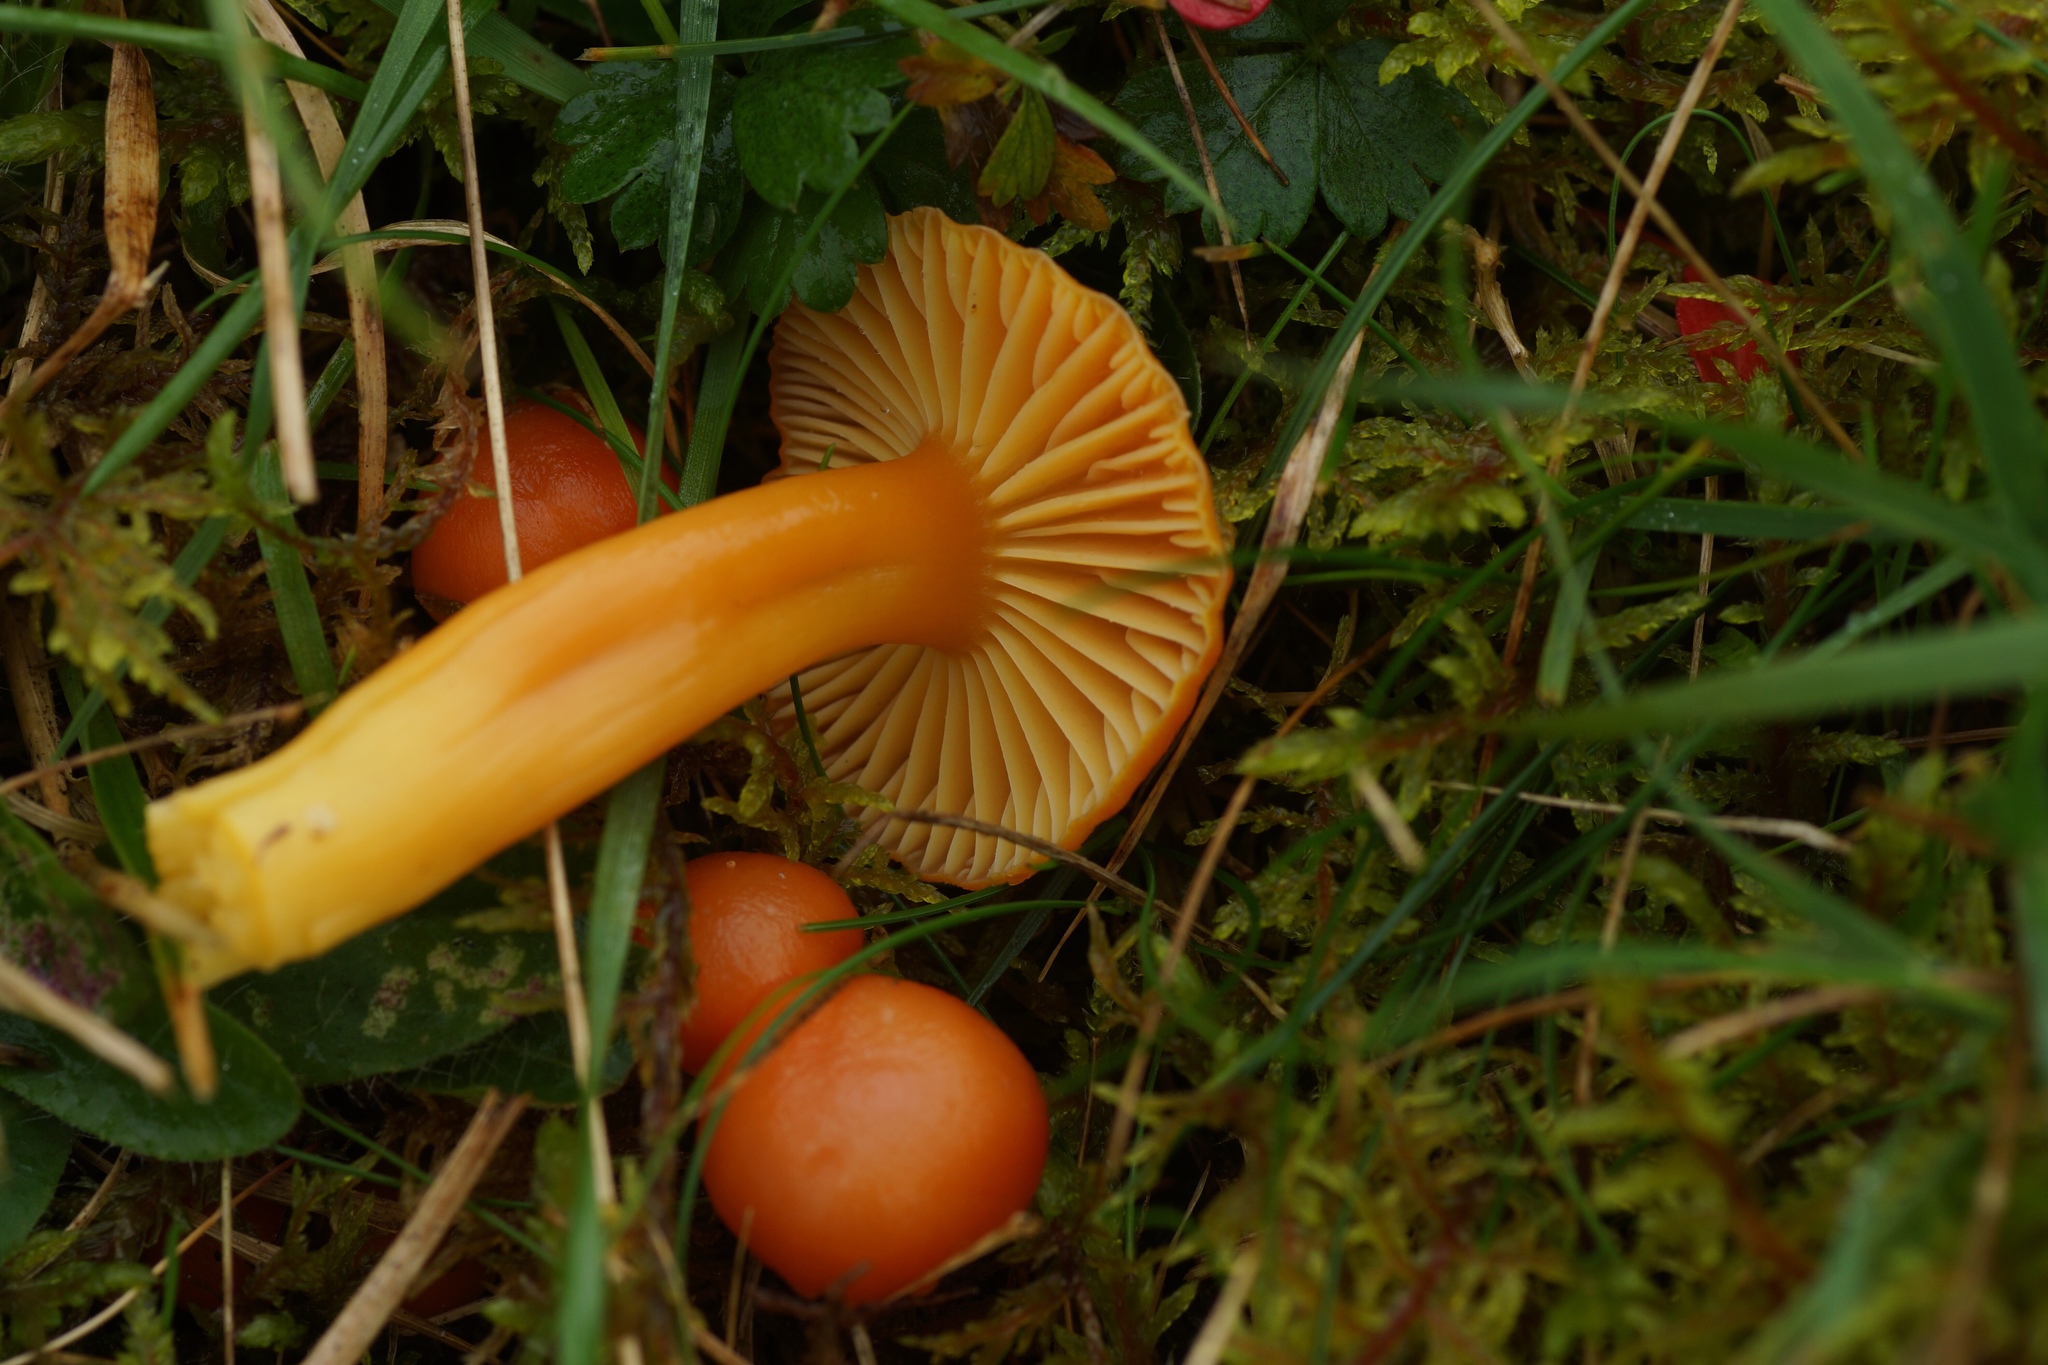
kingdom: Fungi
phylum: Basidiomycota
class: Agaricomycetes
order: Agaricales
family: Hygrophoraceae
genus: Hygrocybe
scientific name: Hygrocybe reidii
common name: Honey waxcap
